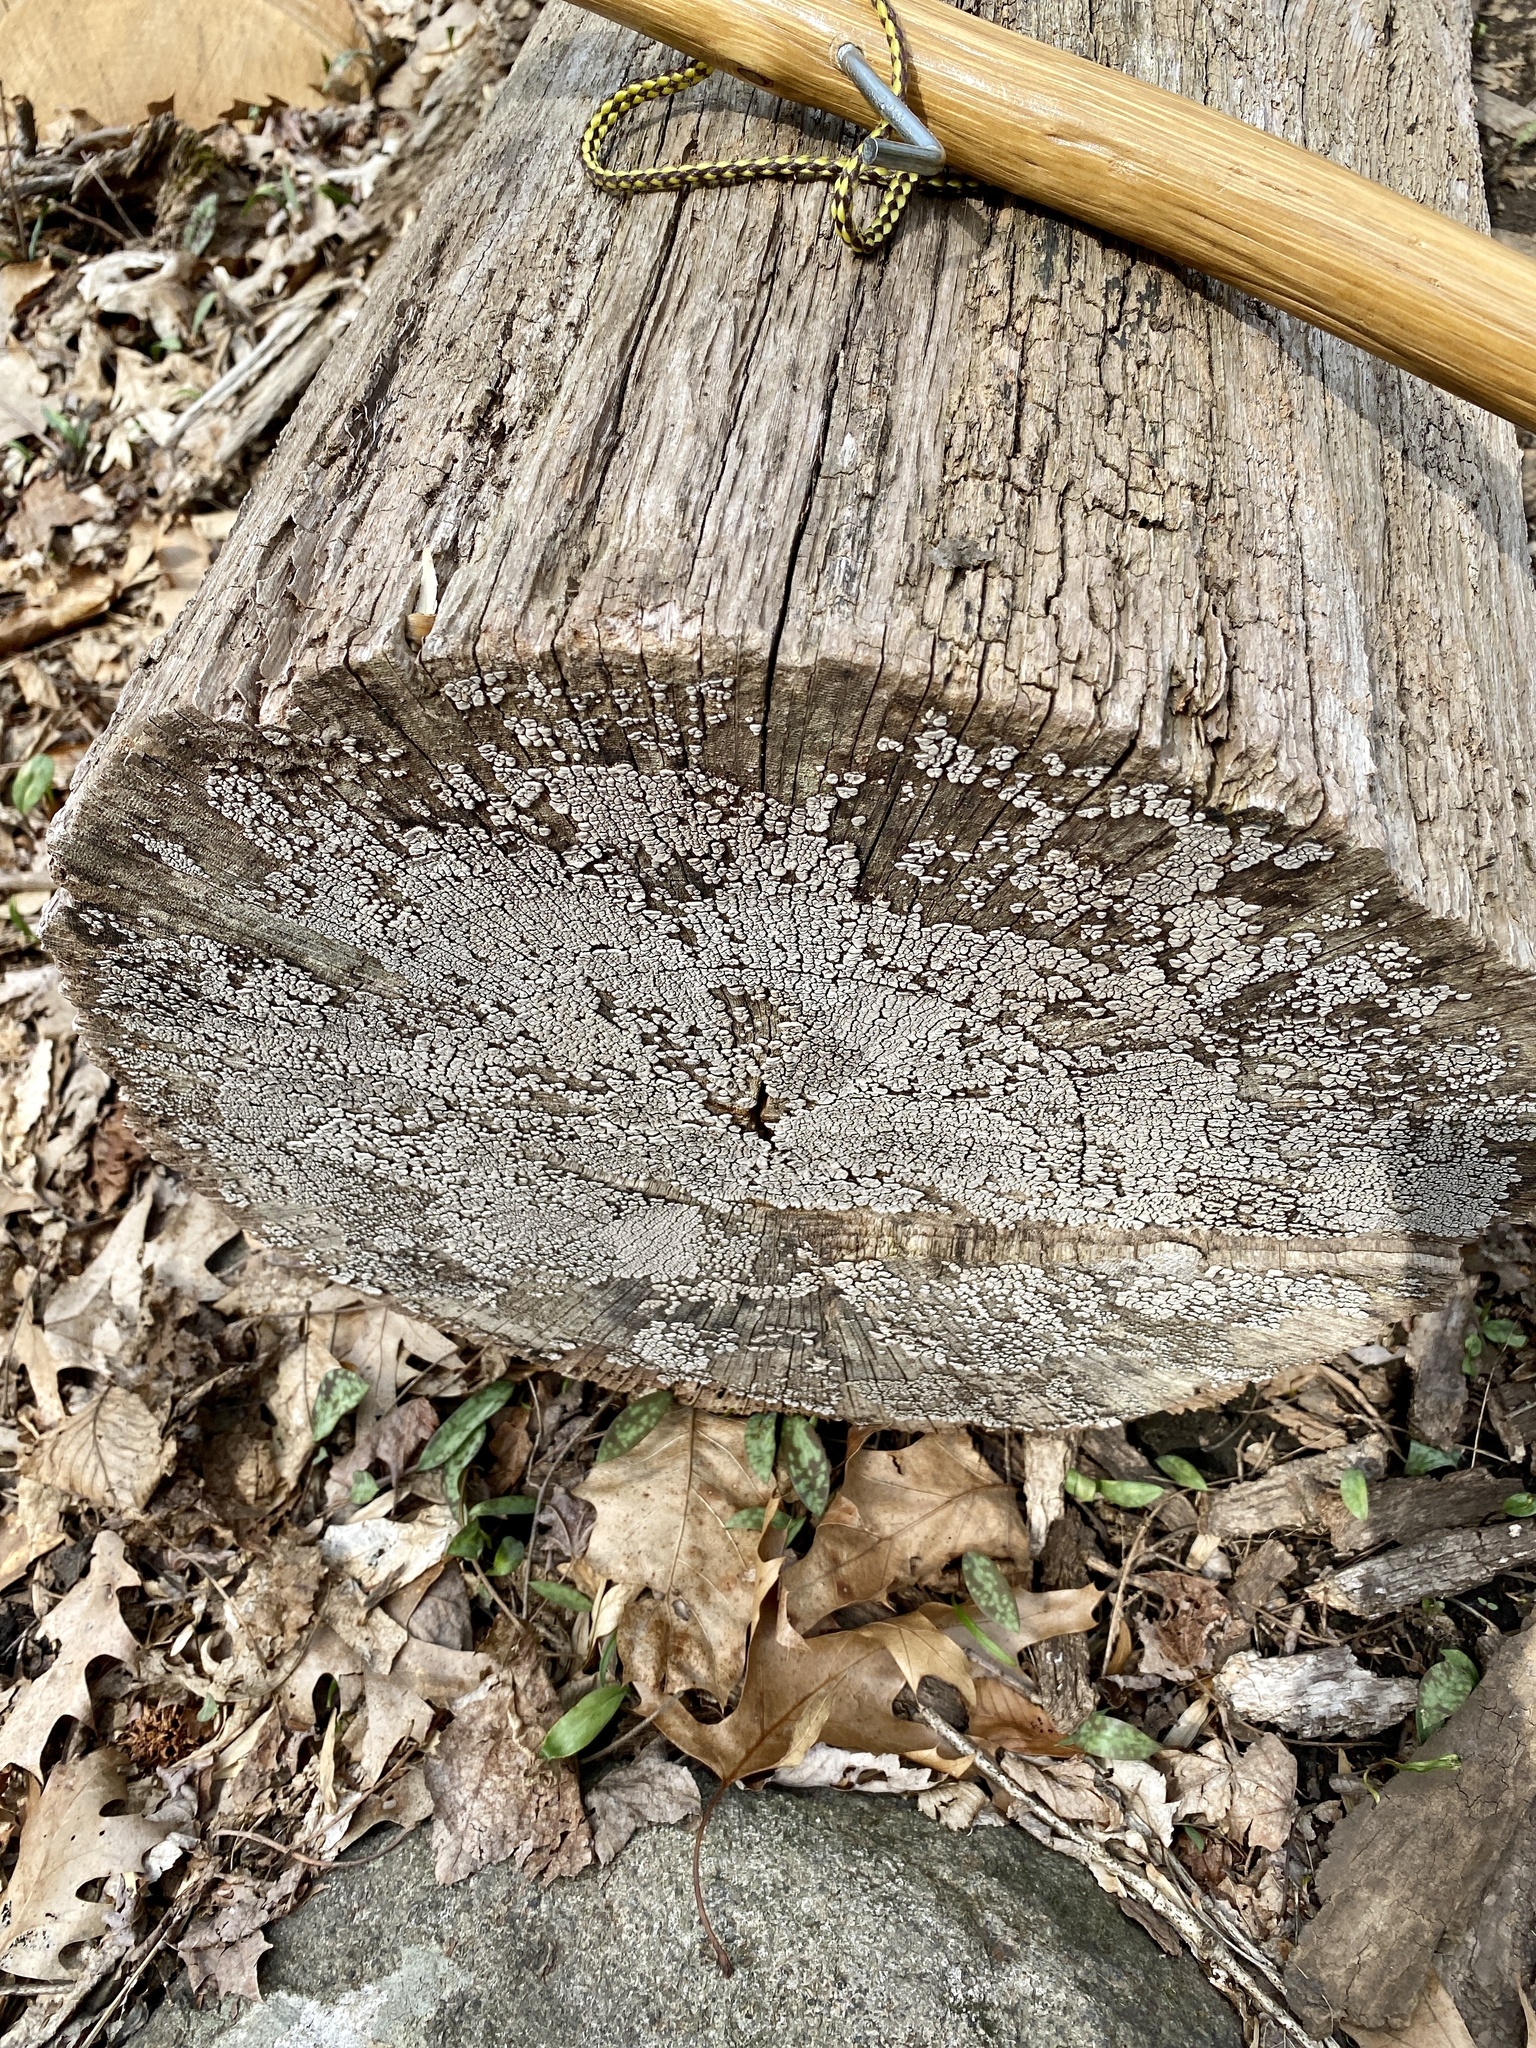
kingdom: Fungi
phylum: Basidiomycota
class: Agaricomycetes
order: Russulales
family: Stereaceae
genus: Xylobolus
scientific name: Xylobolus frustulatus
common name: Ceramic parchment
